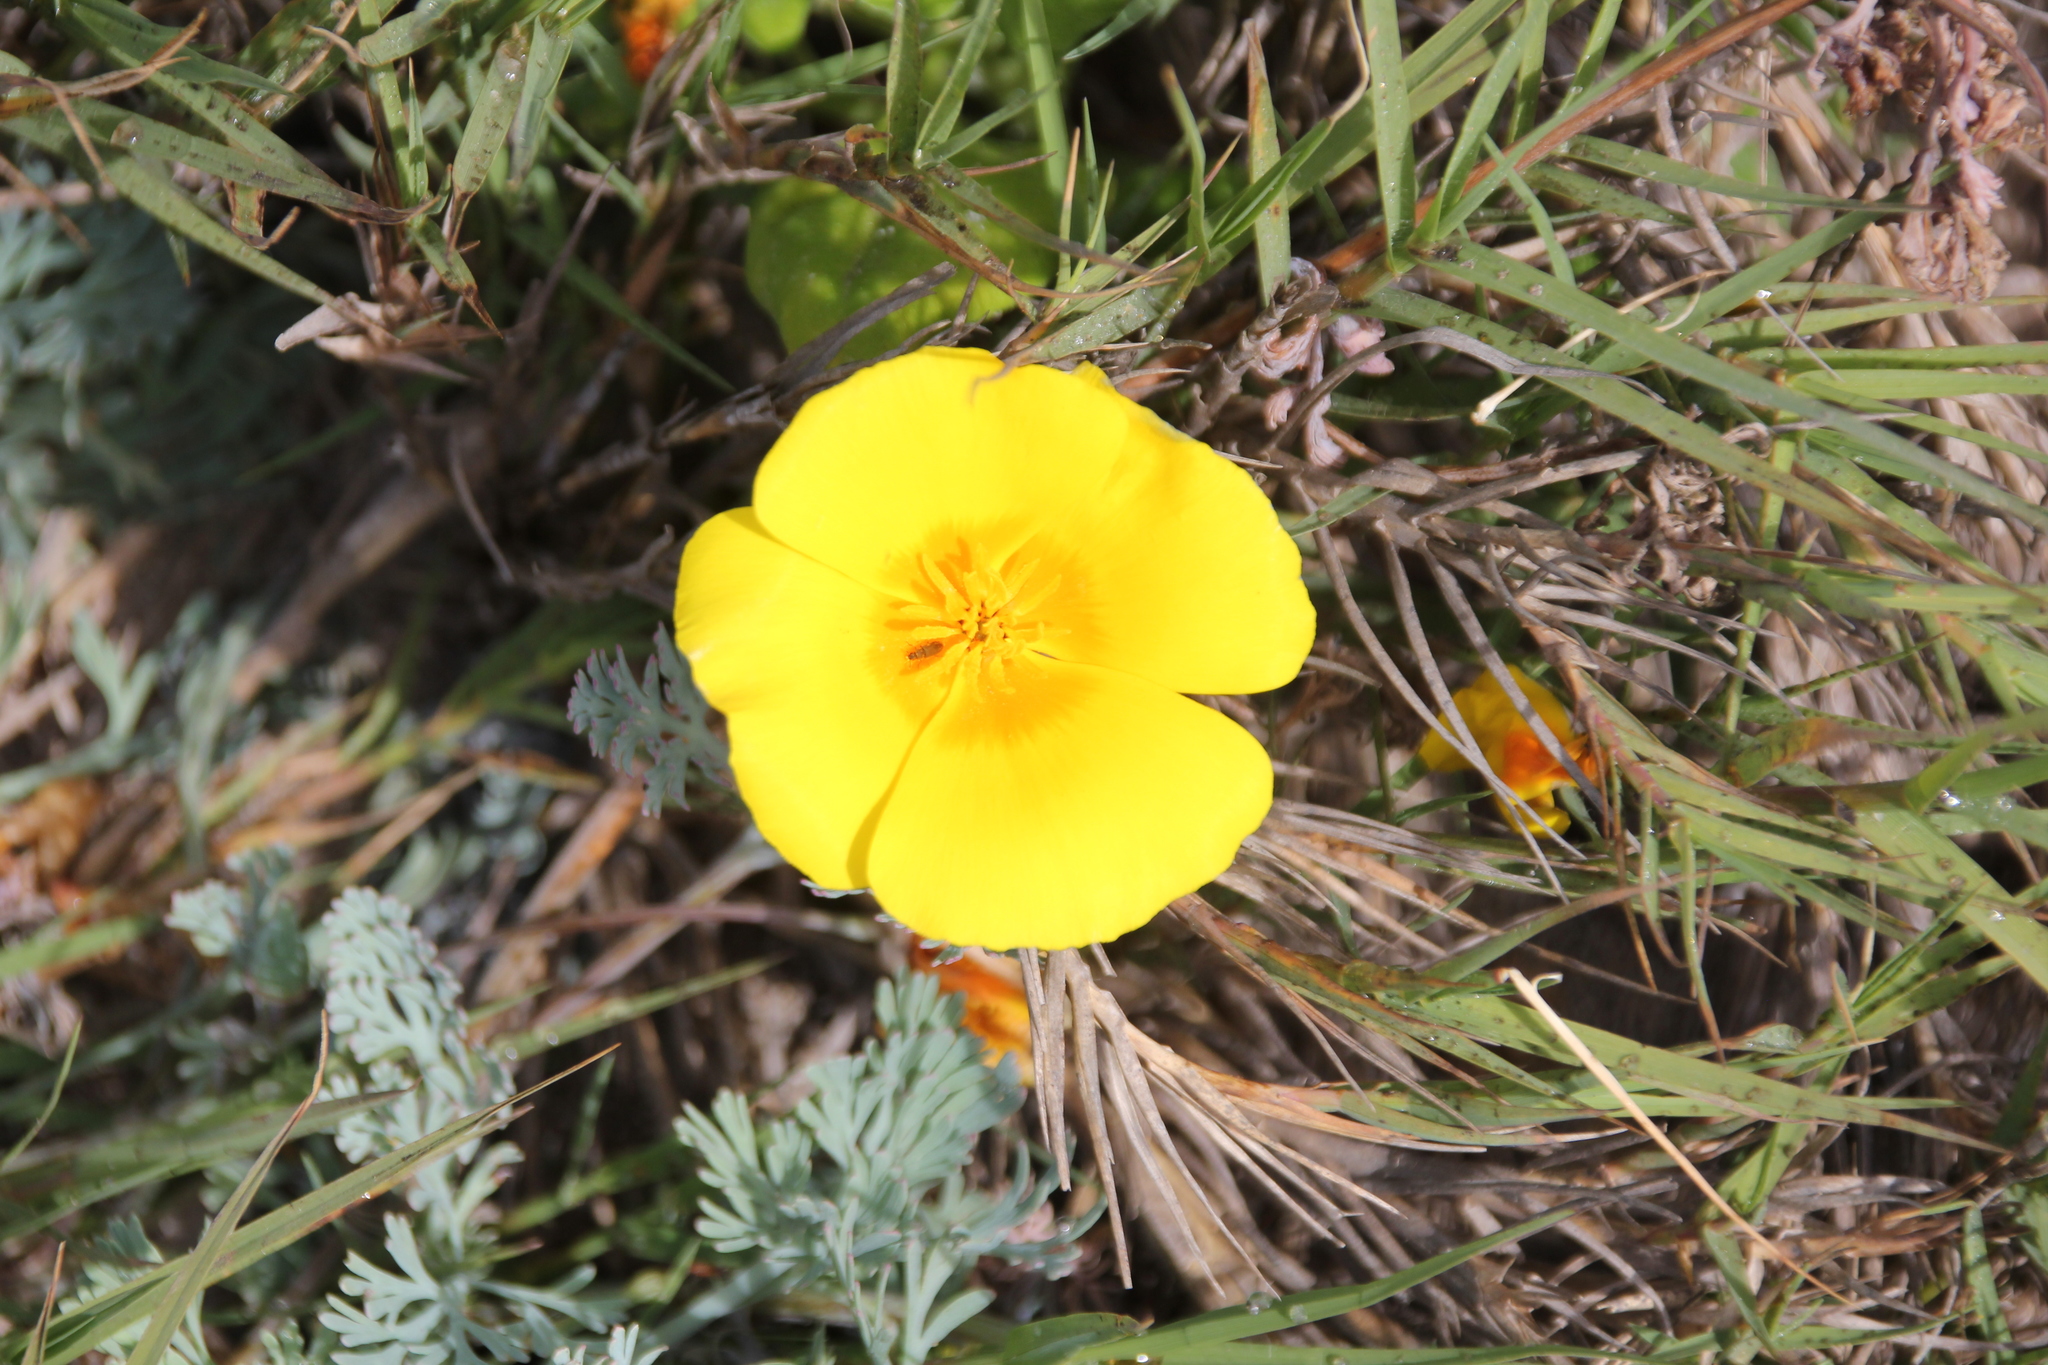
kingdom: Plantae
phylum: Tracheophyta
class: Magnoliopsida
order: Ranunculales
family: Papaveraceae
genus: Eschscholzia
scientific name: Eschscholzia californica
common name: California poppy
